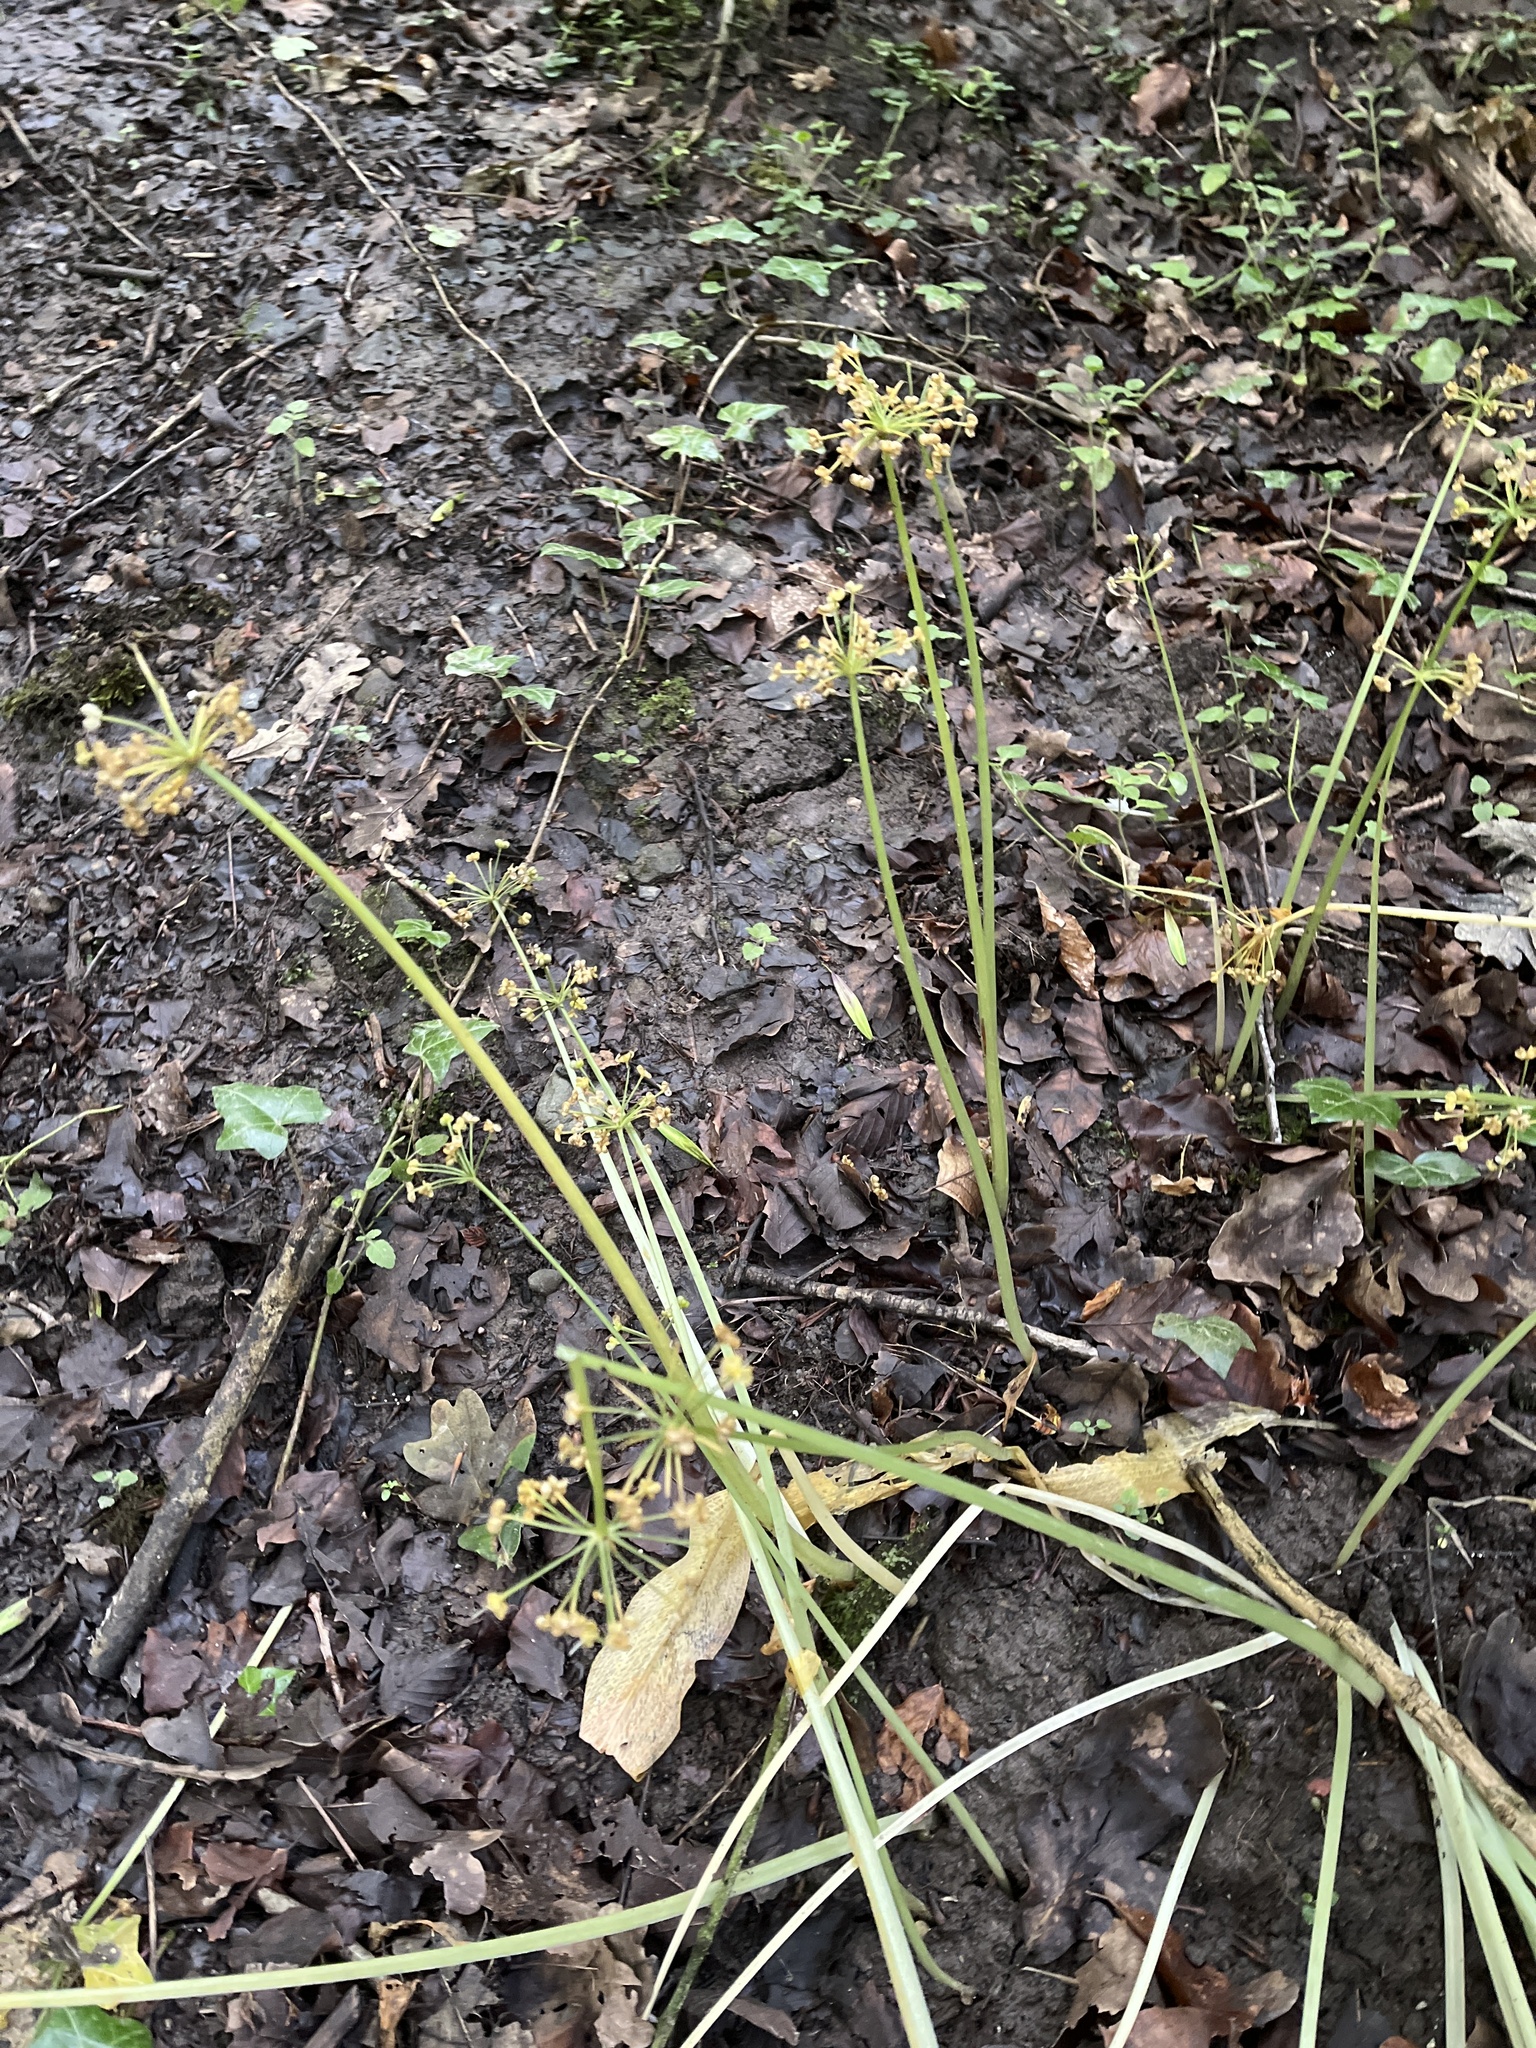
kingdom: Plantae
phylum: Tracheophyta
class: Liliopsida
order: Asparagales
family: Amaryllidaceae
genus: Allium
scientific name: Allium ursinum
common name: Ramsons
